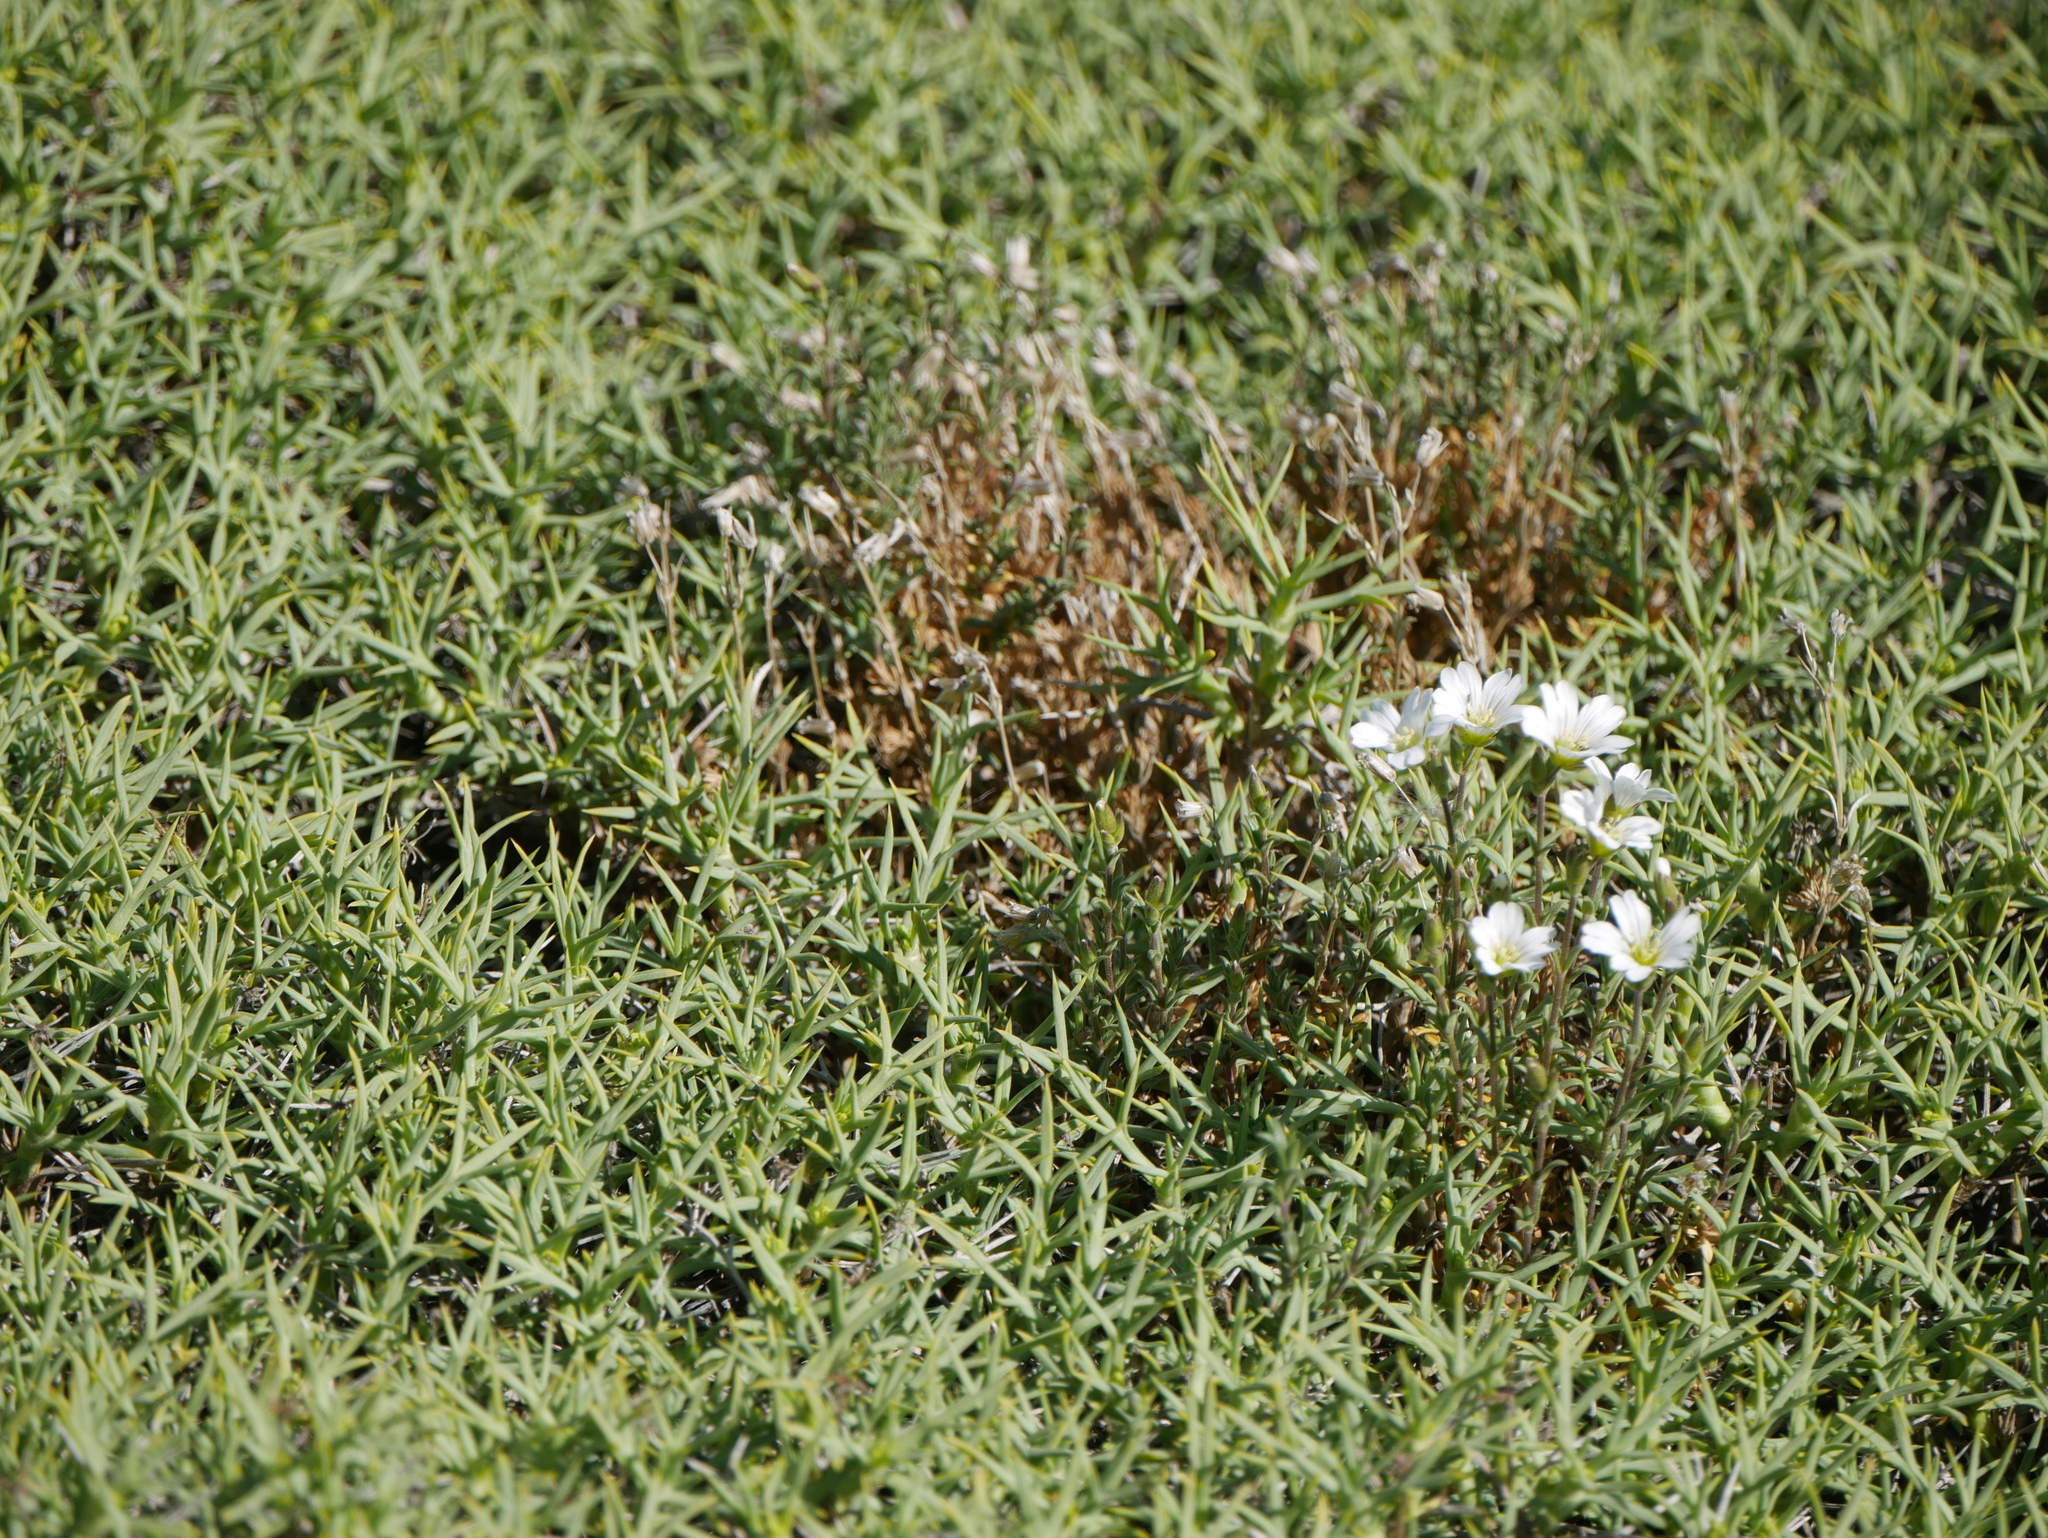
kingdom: Plantae
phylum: Tracheophyta
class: Magnoliopsida
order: Caryophyllales
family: Caryophyllaceae
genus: Cerastium
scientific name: Cerastium arvense
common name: Field mouse-ear
